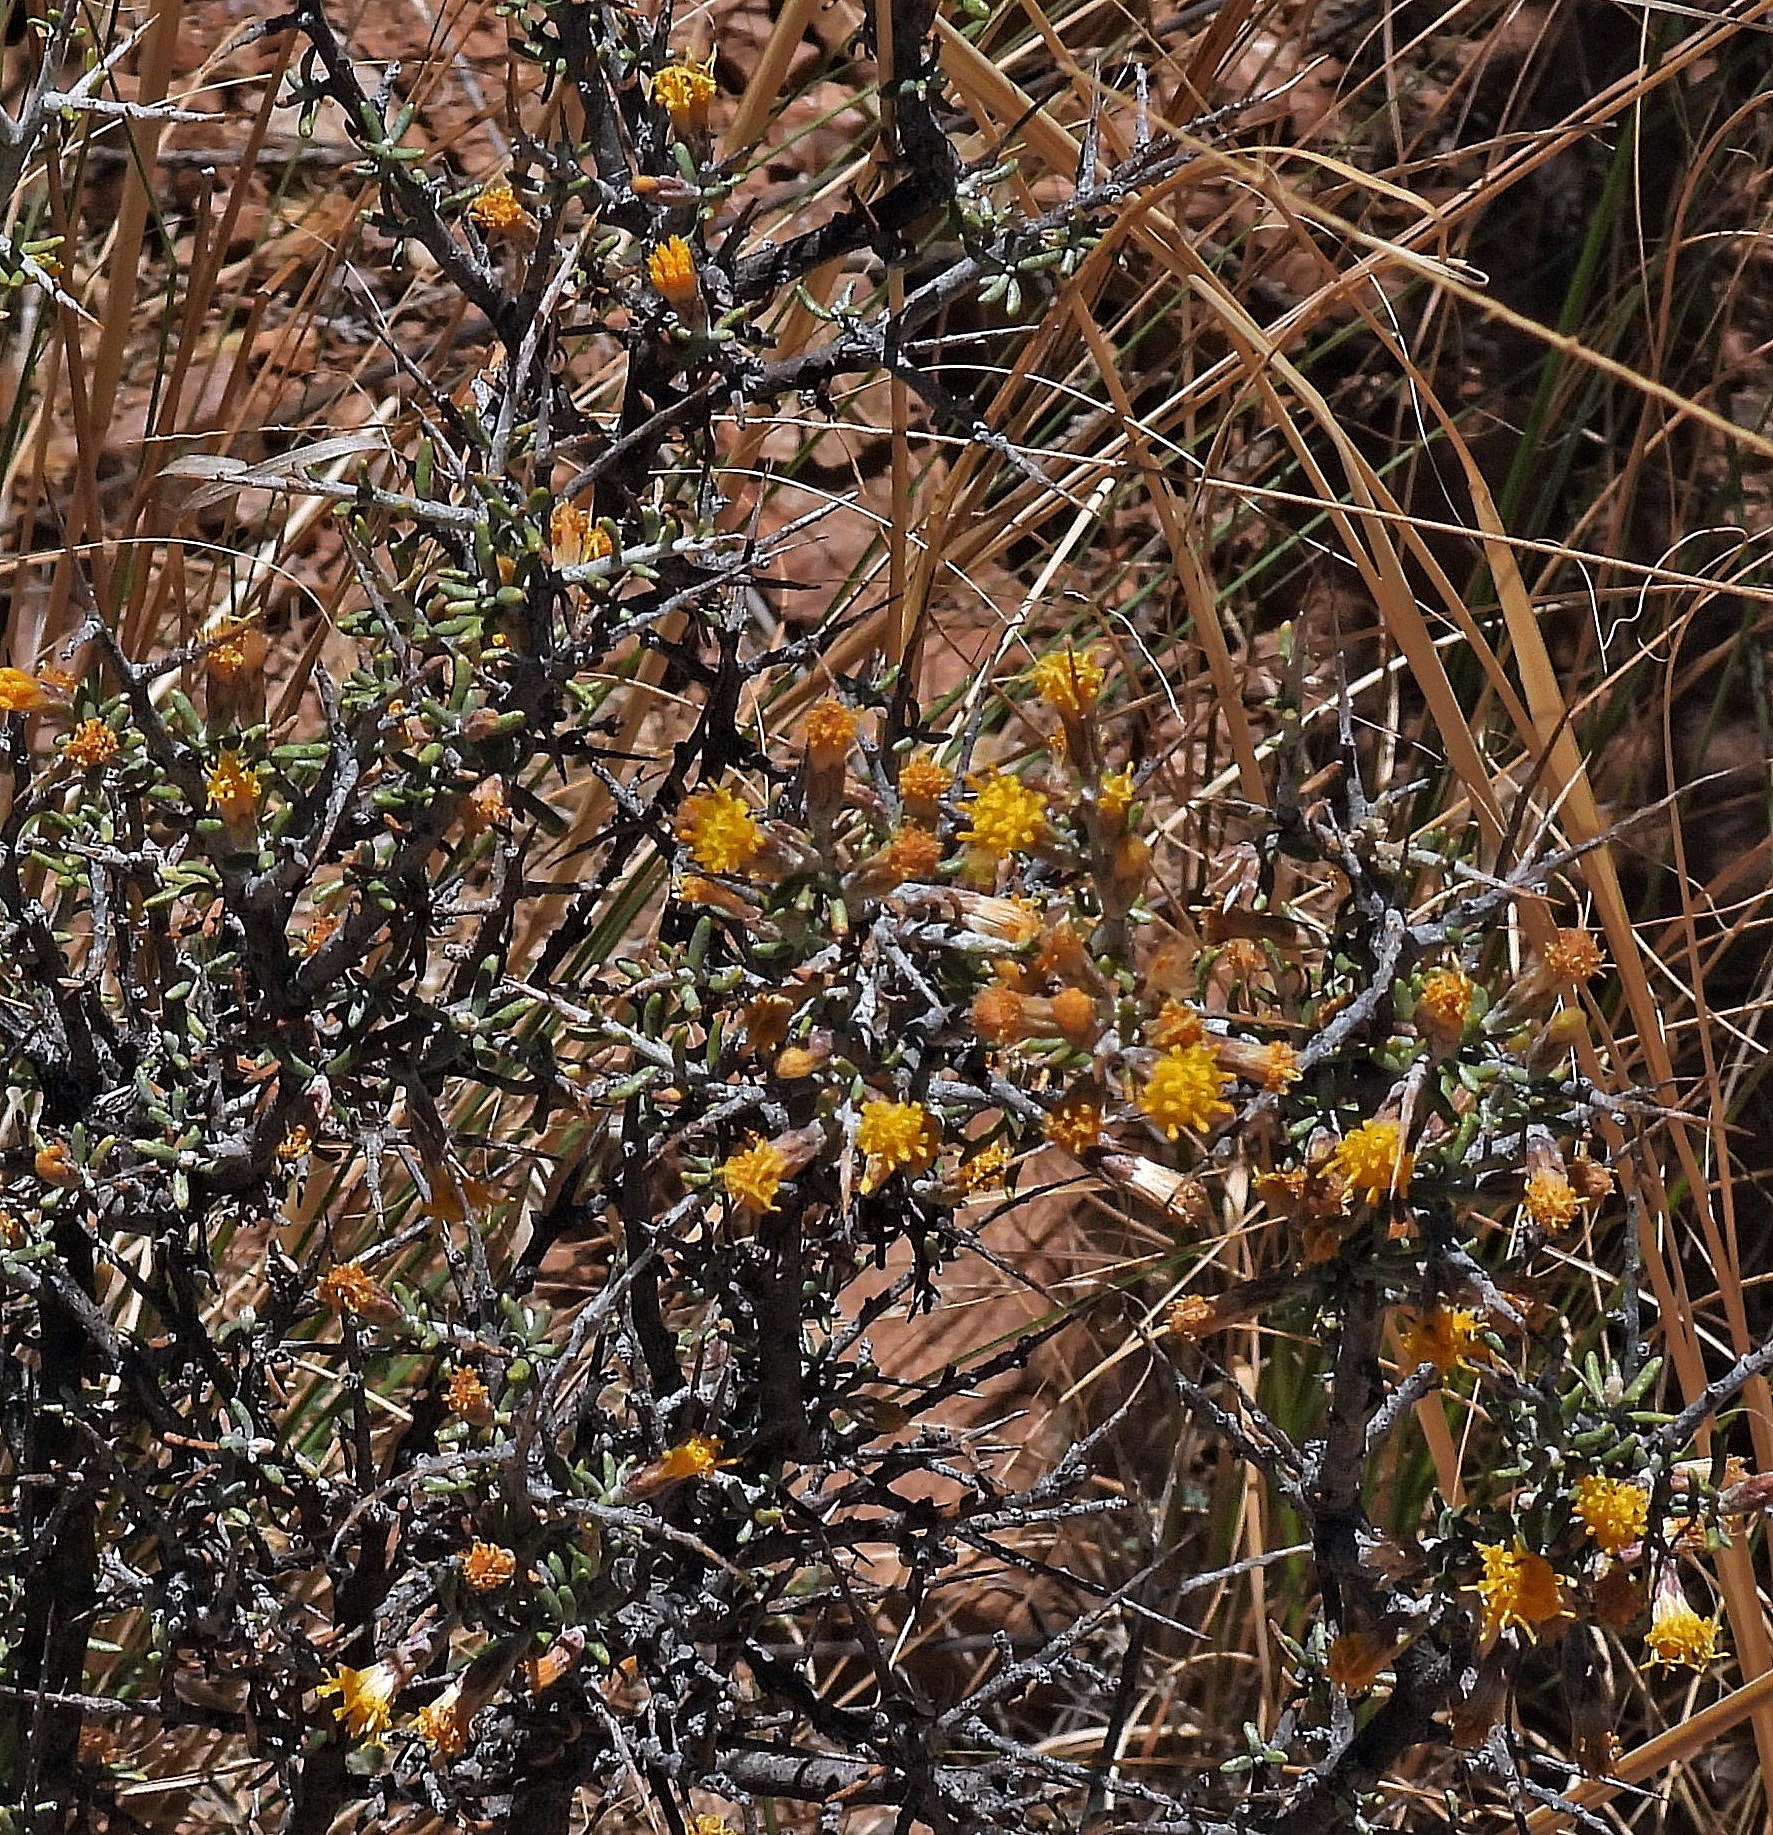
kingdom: Plantae
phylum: Tracheophyta
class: Magnoliopsida
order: Asterales
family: Asteraceae
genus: Parastrephia
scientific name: Parastrephia lucida
